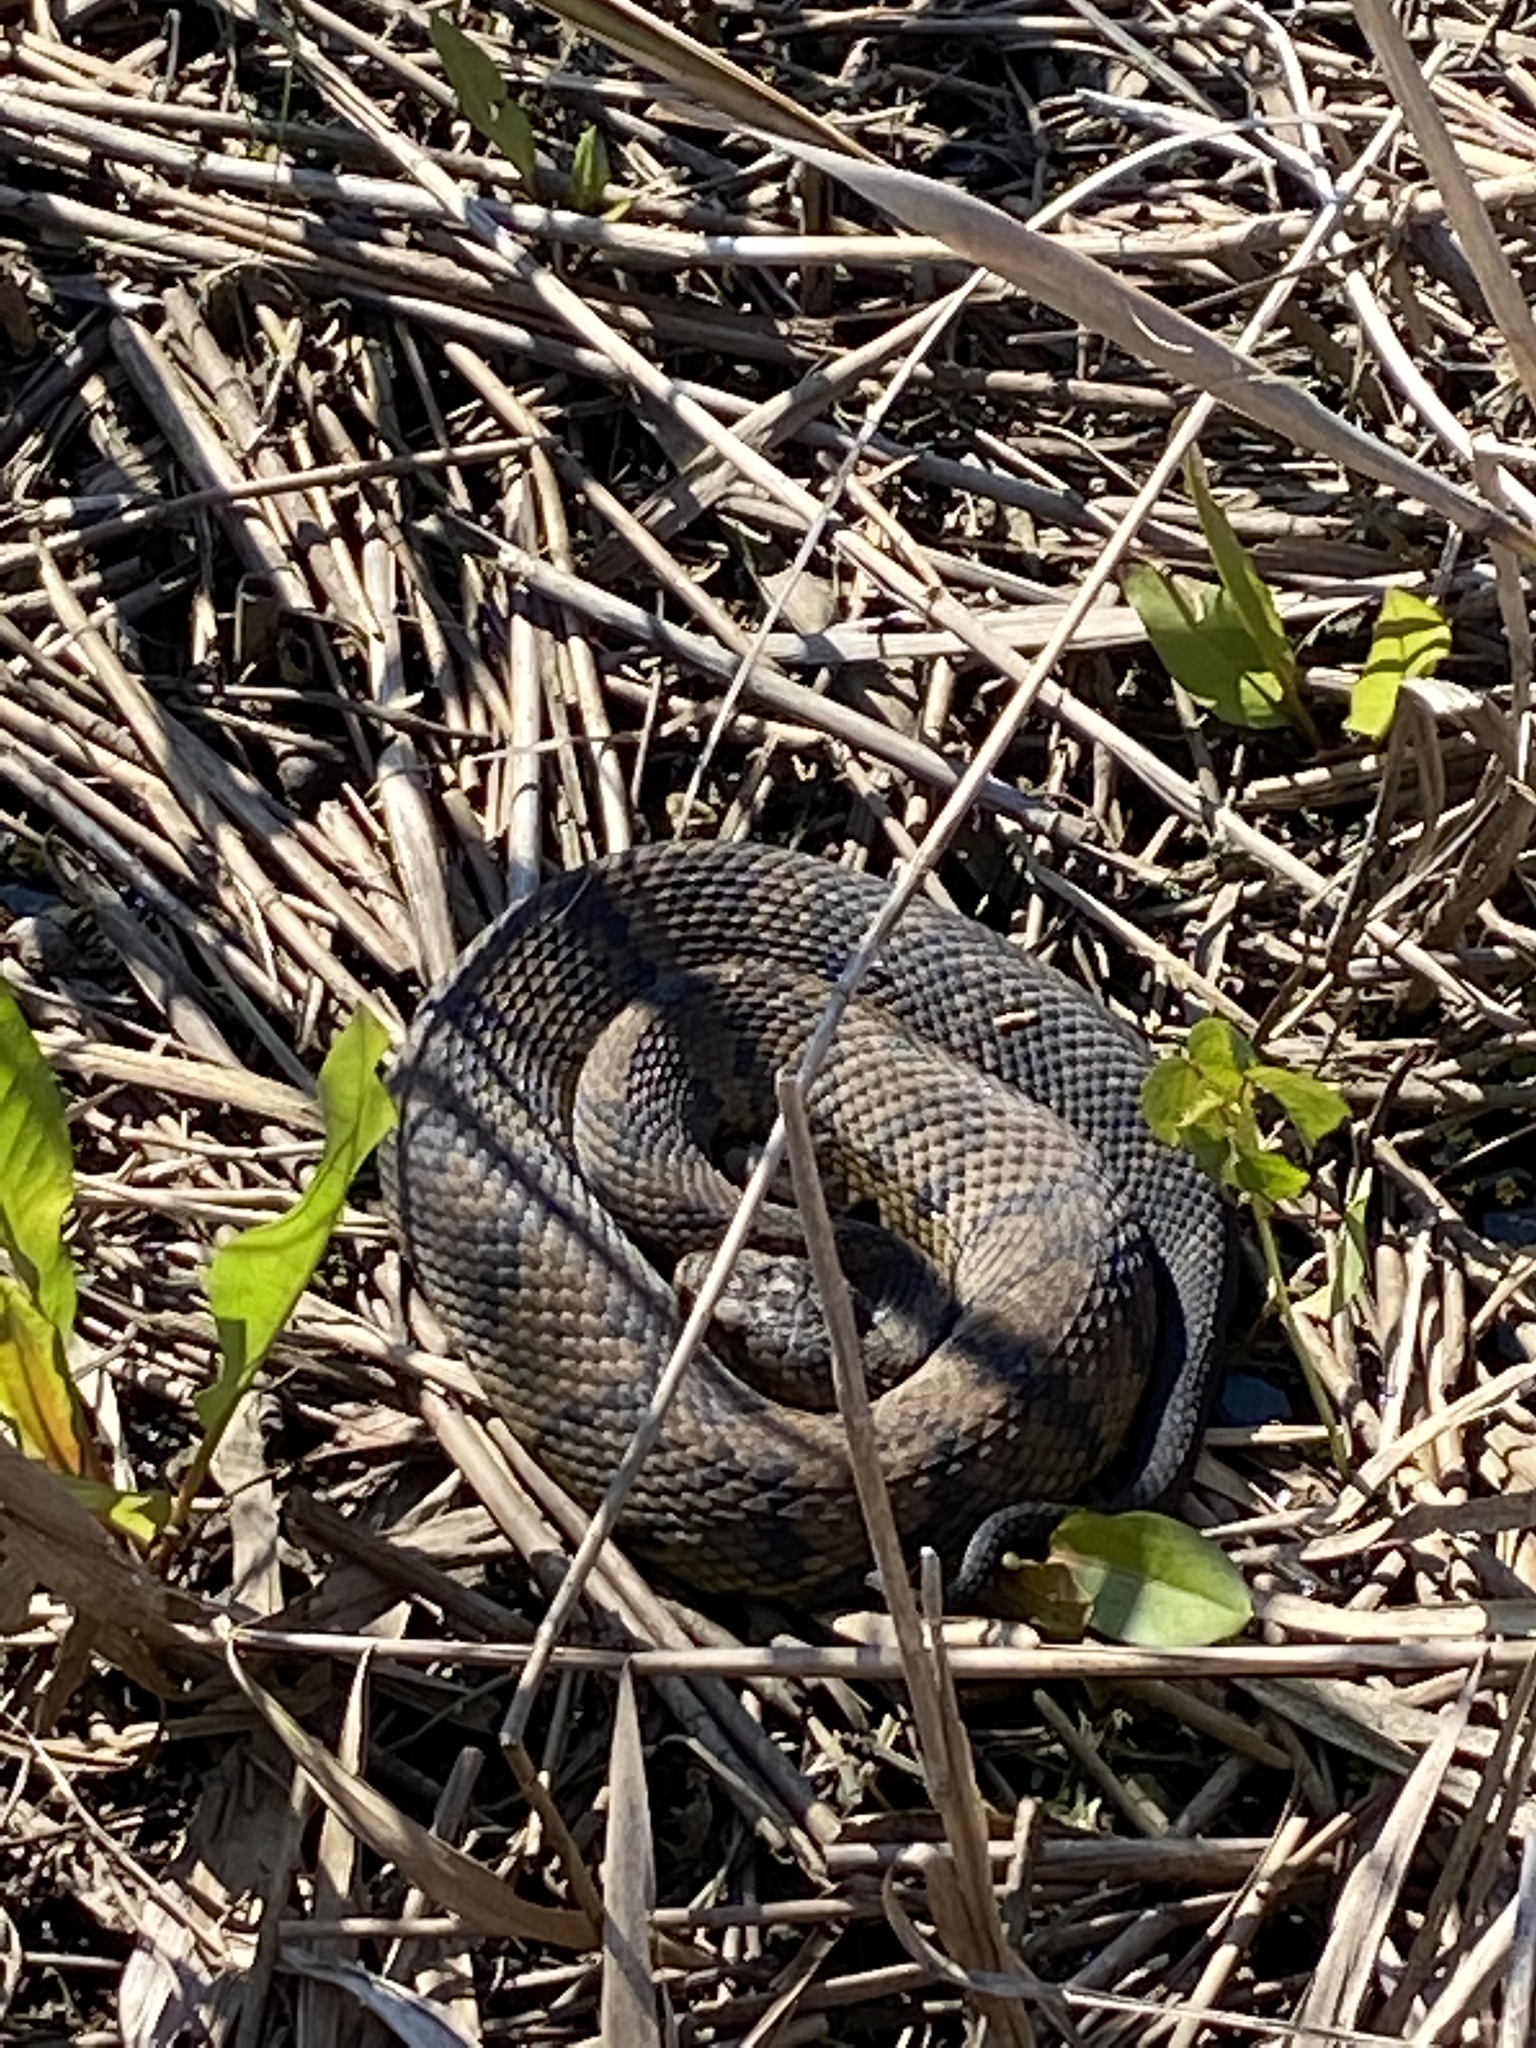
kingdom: Animalia
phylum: Chordata
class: Squamata
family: Viperidae
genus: Agkistrodon
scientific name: Agkistrodon piscivorus
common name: Cottonmouth
